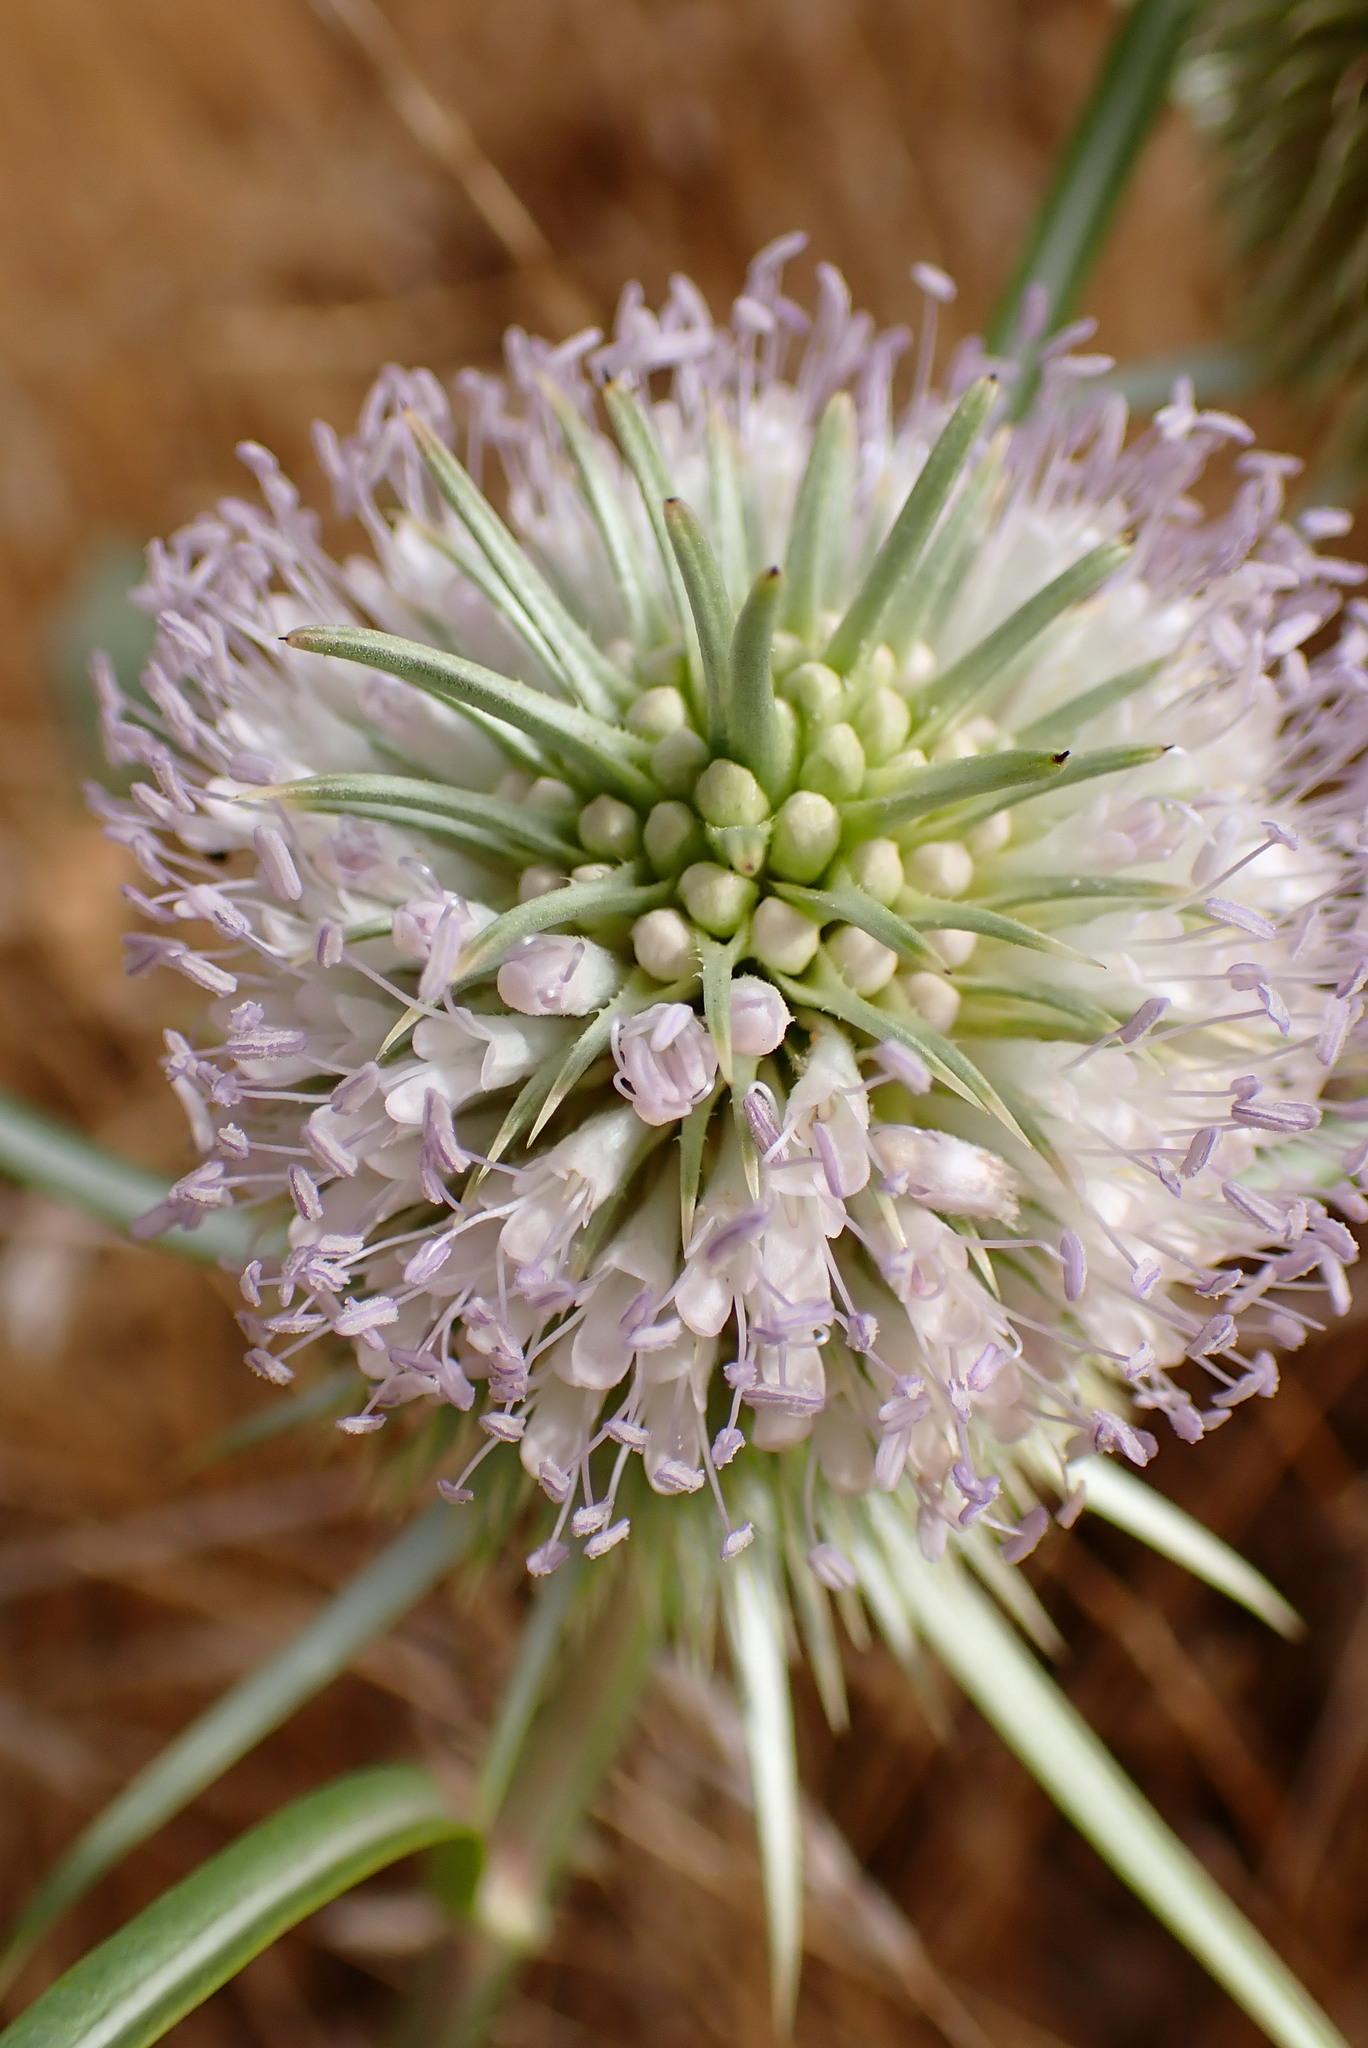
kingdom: Plantae
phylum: Tracheophyta
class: Magnoliopsida
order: Dipsacales
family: Caprifoliaceae
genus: Dipsacus
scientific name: Dipsacus sativus
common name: Fuller's teasel
